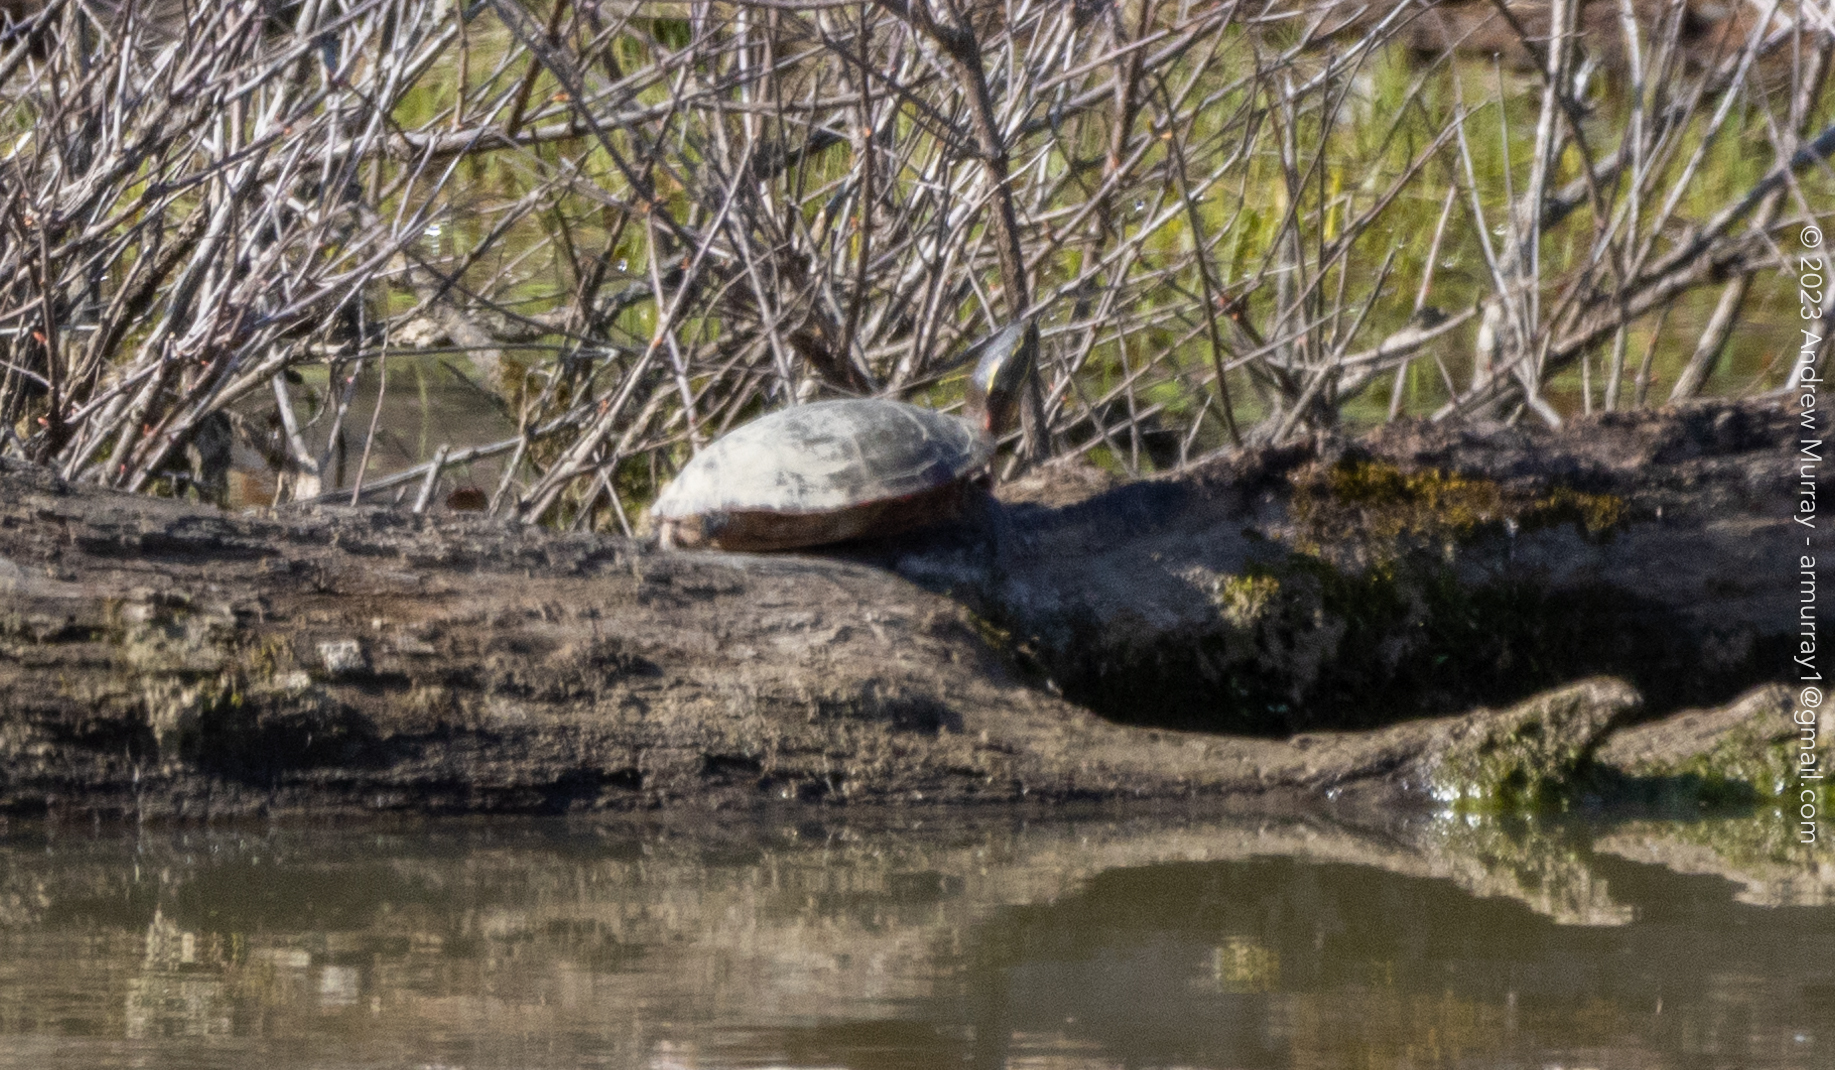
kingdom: Animalia
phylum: Chordata
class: Testudines
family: Emydidae
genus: Chrysemys
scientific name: Chrysemys picta
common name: Painted turtle
